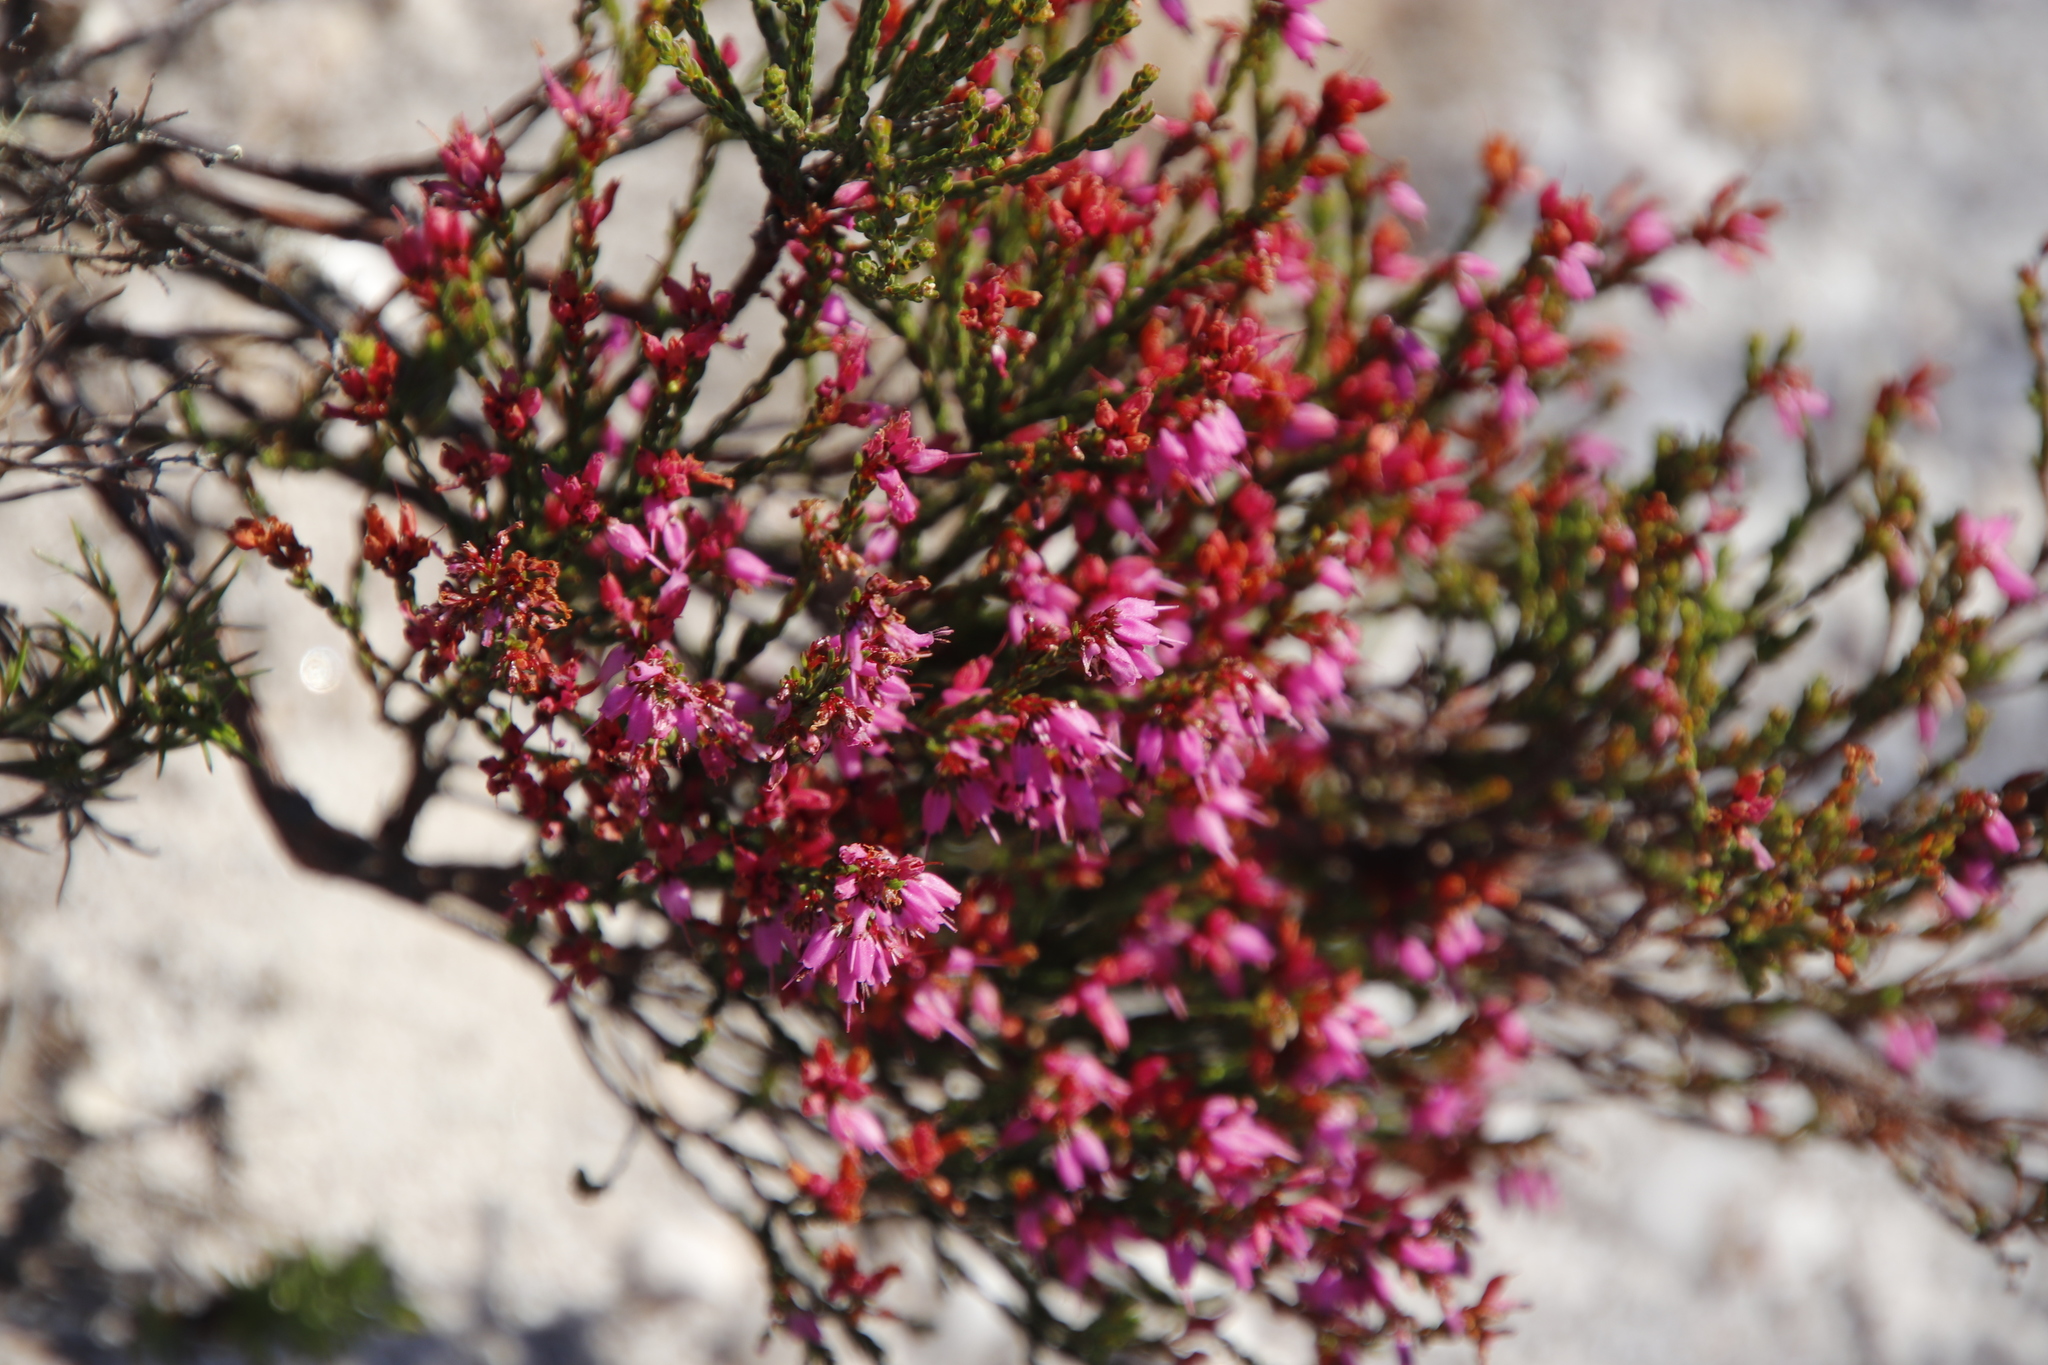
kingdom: Plantae
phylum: Tracheophyta
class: Magnoliopsida
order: Ericales
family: Ericaceae
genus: Erica
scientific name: Erica nudiflora
